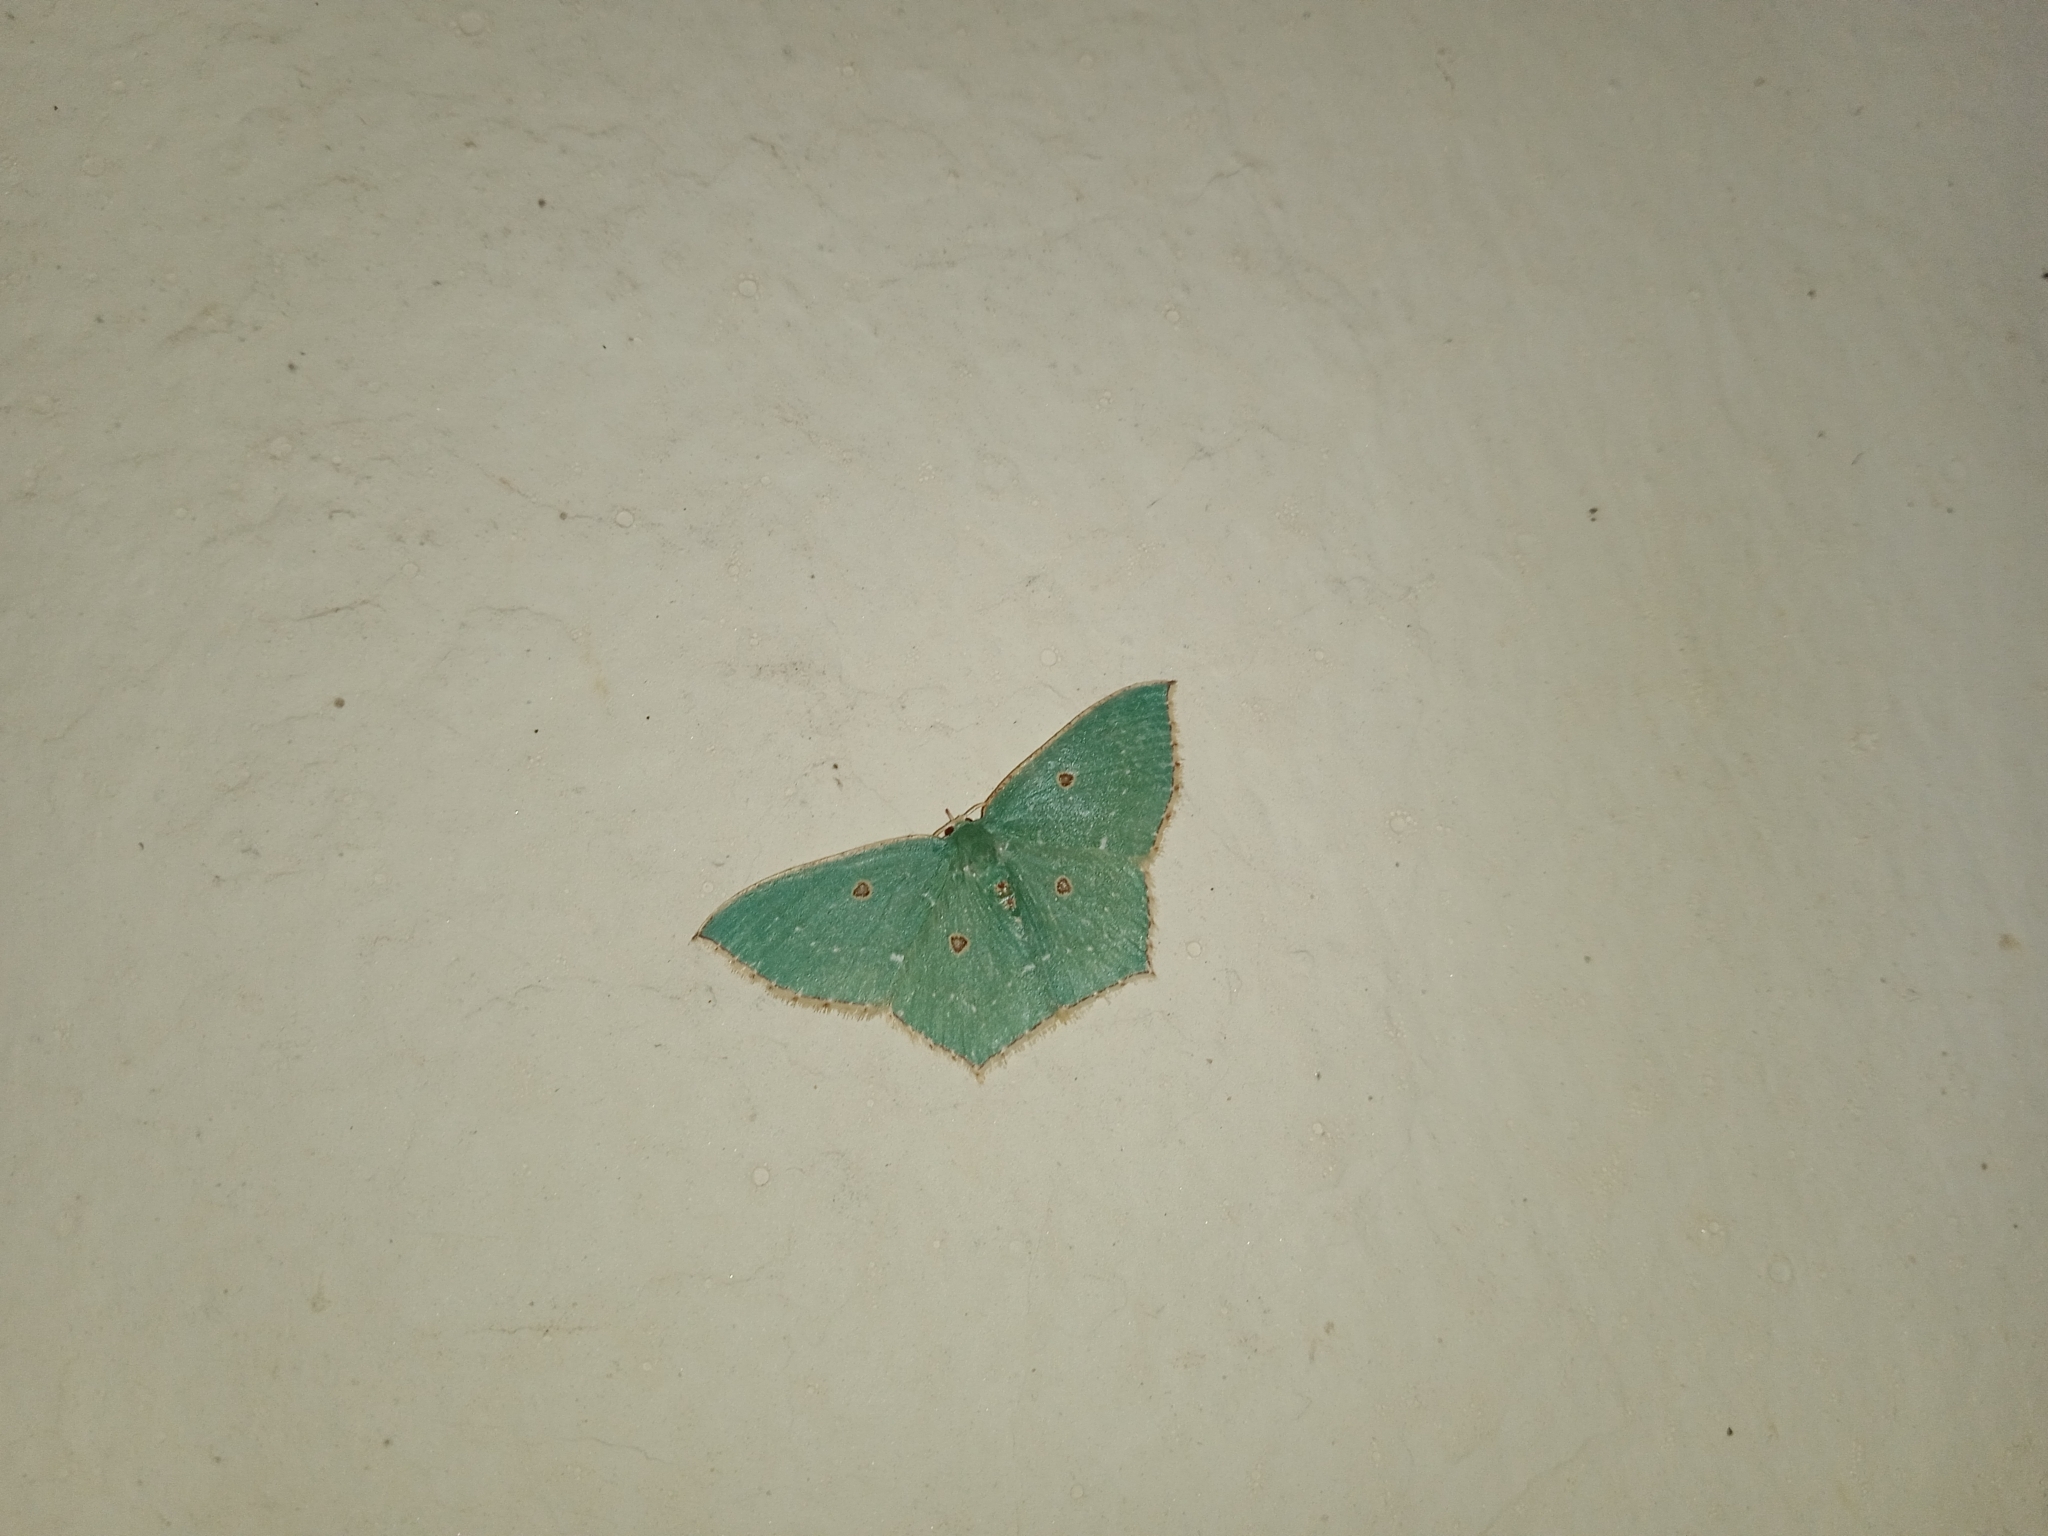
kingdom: Animalia
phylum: Arthropoda
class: Insecta
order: Lepidoptera
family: Geometridae
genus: Cyclothea
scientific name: Cyclothea disjuncta
